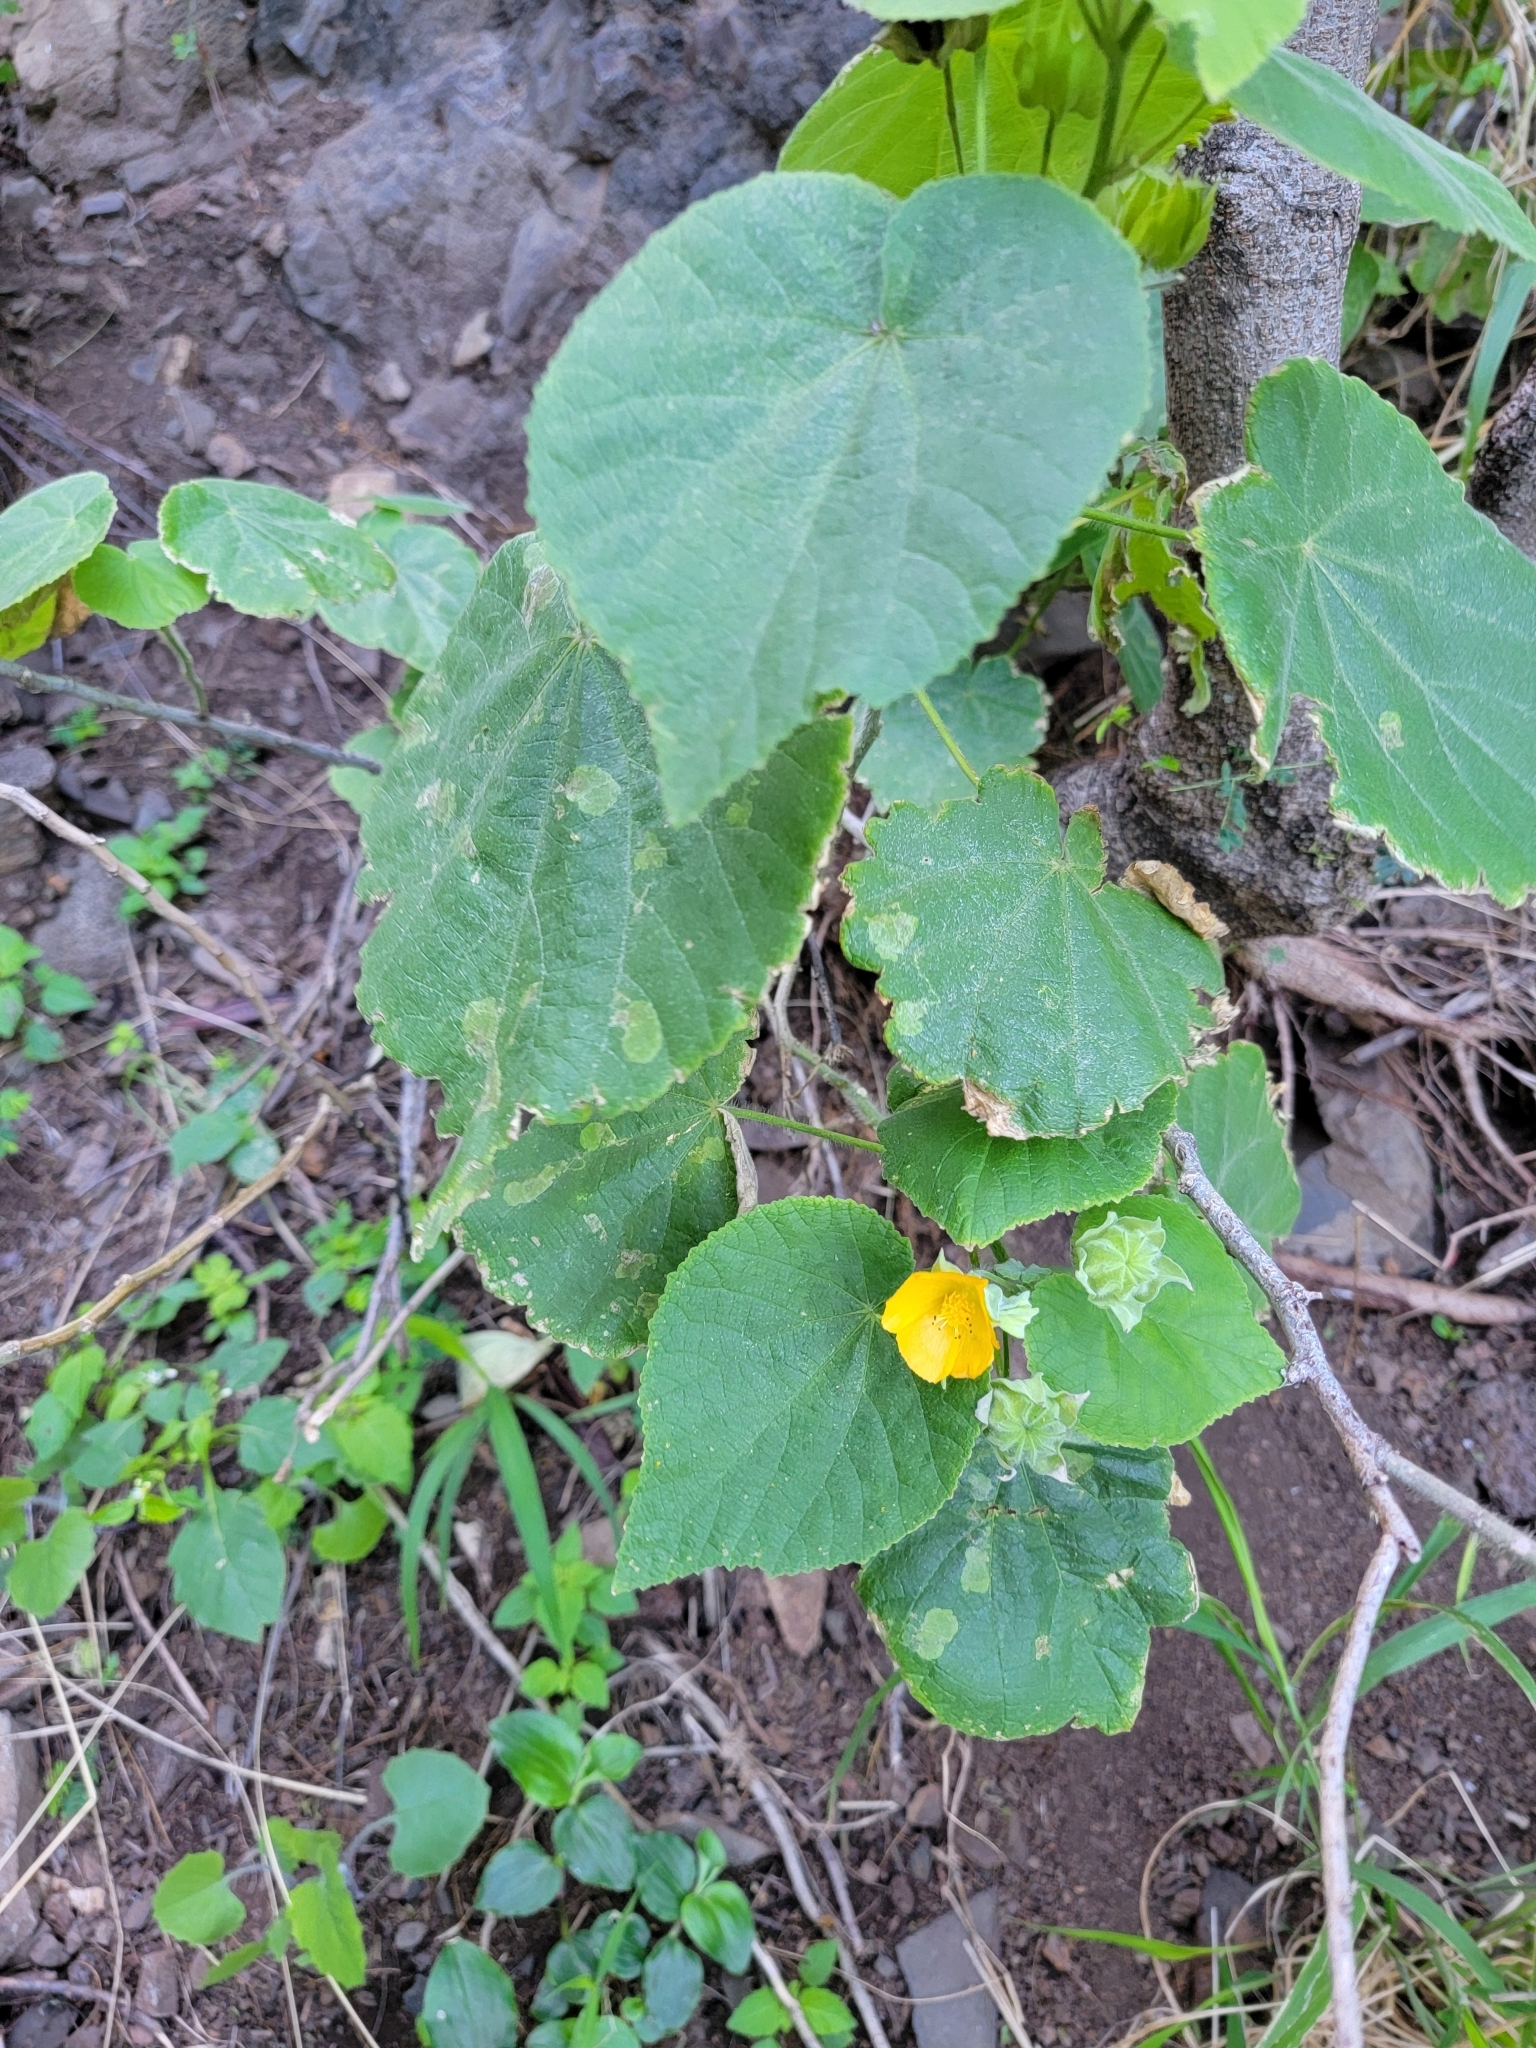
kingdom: Plantae
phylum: Tracheophyta
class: Magnoliopsida
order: Malvales
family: Malvaceae
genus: Abutilon
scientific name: Abutilon grandifolium
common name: Hairy abutilon
